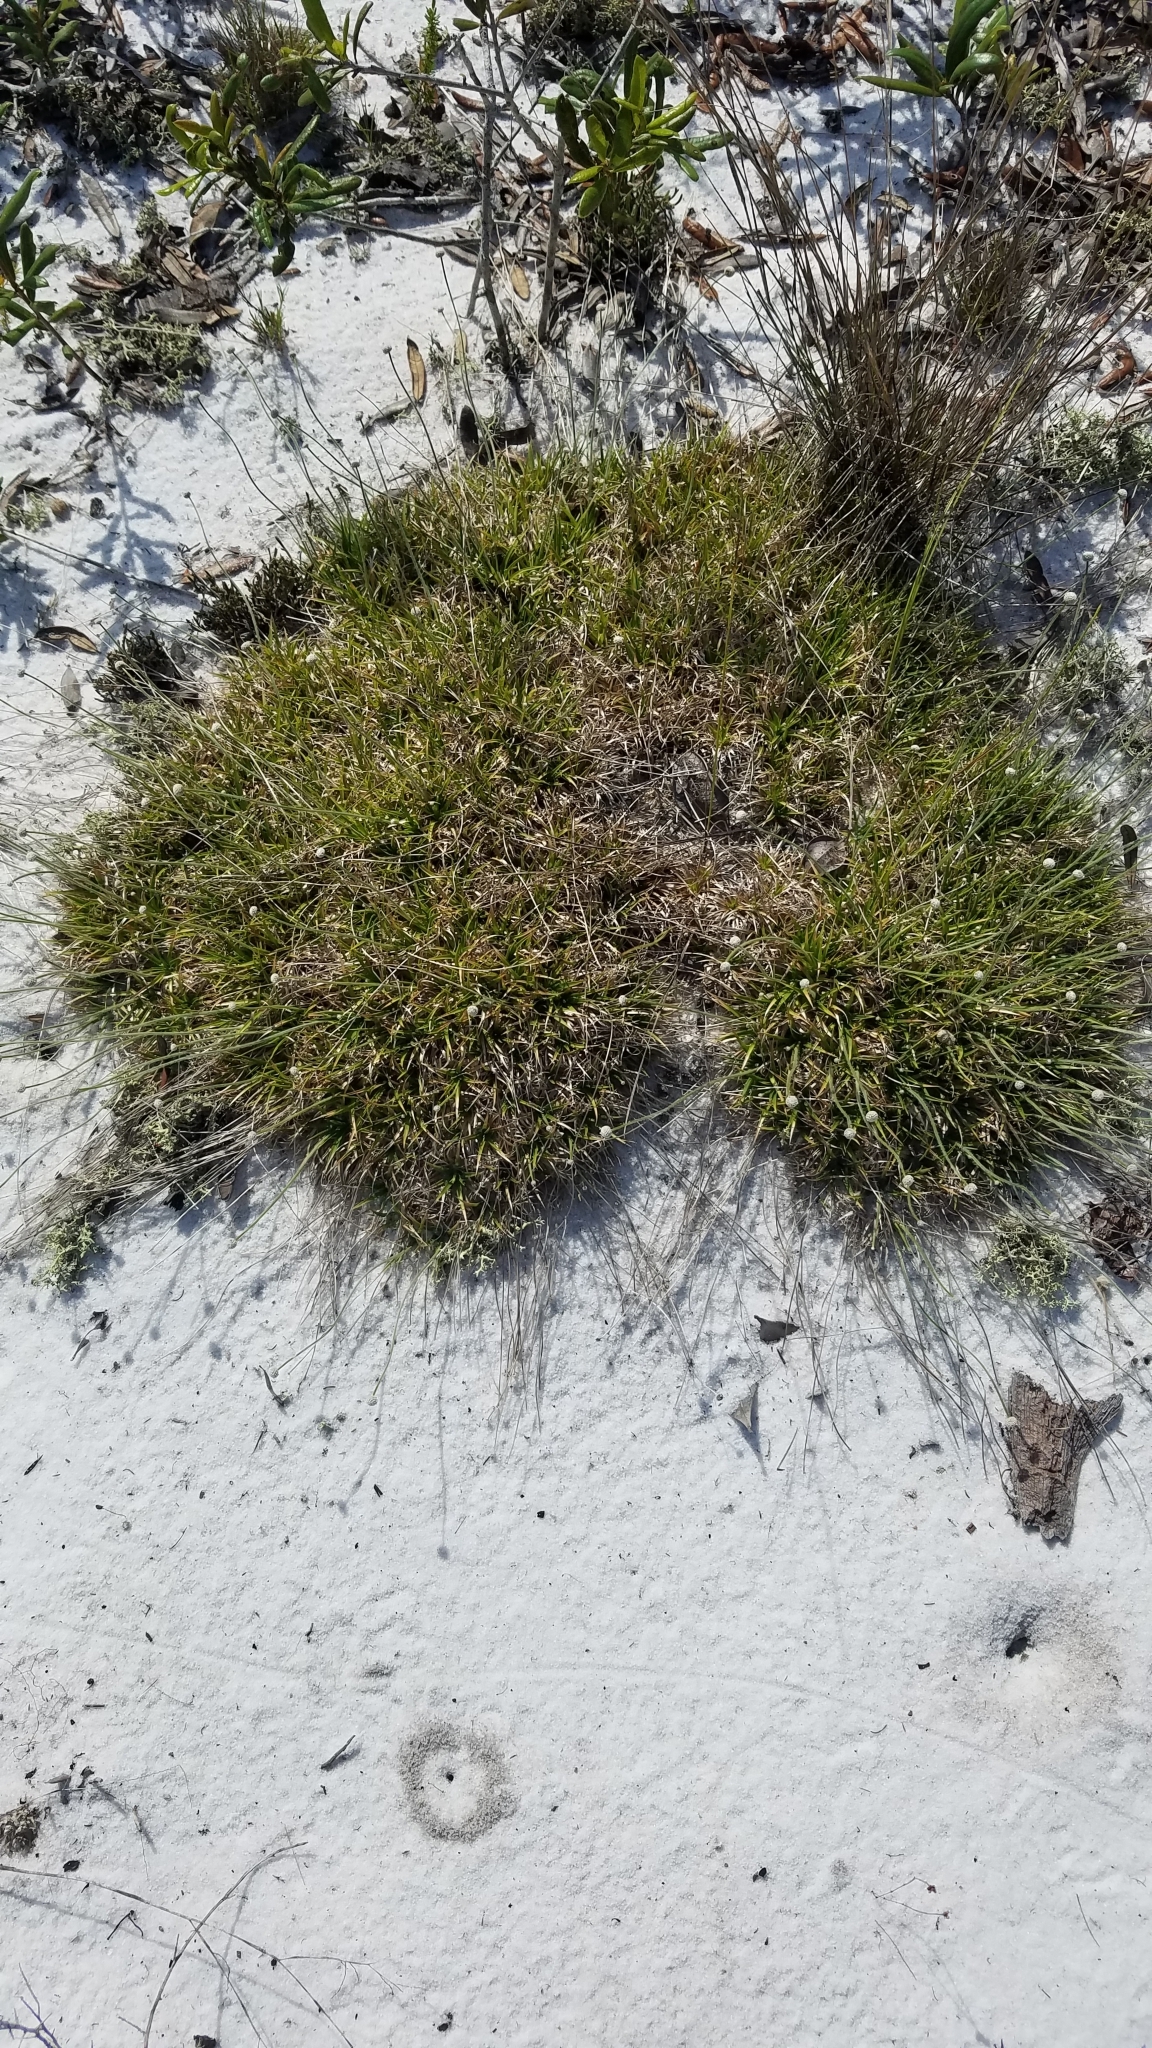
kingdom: Plantae
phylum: Tracheophyta
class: Liliopsida
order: Poales
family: Eriocaulaceae
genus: Paepalanthus
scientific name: Paepalanthus beyrichianus
